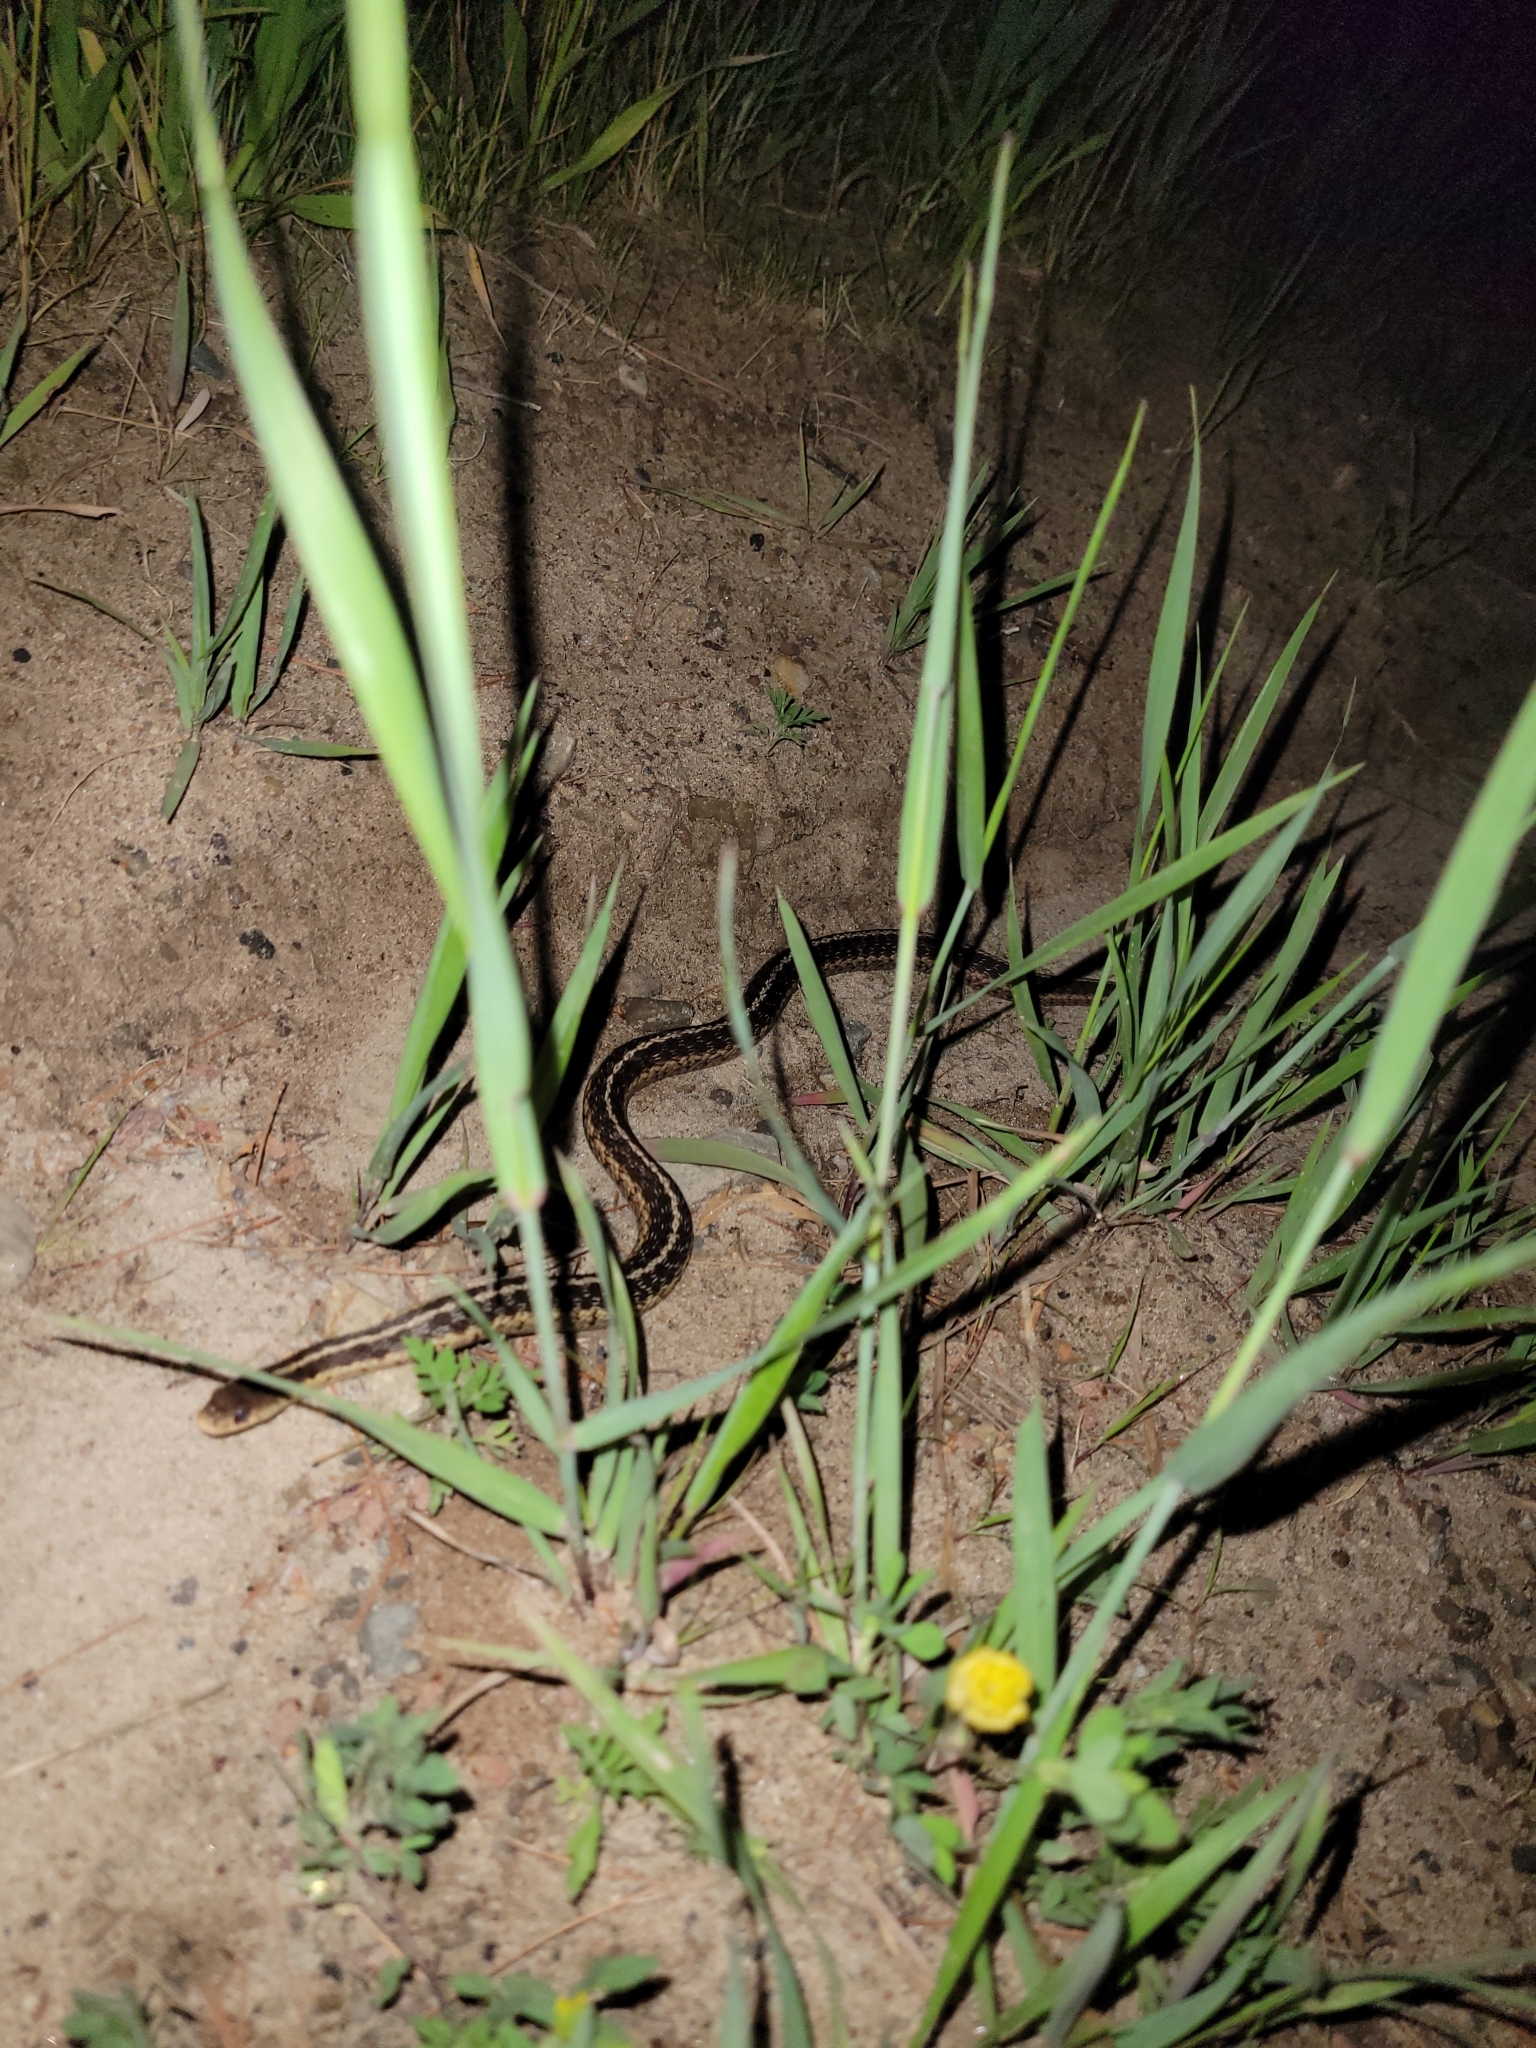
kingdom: Animalia
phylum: Chordata
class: Squamata
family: Colubridae
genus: Thamnophis
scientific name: Thamnophis sirtalis
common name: Common garter snake
